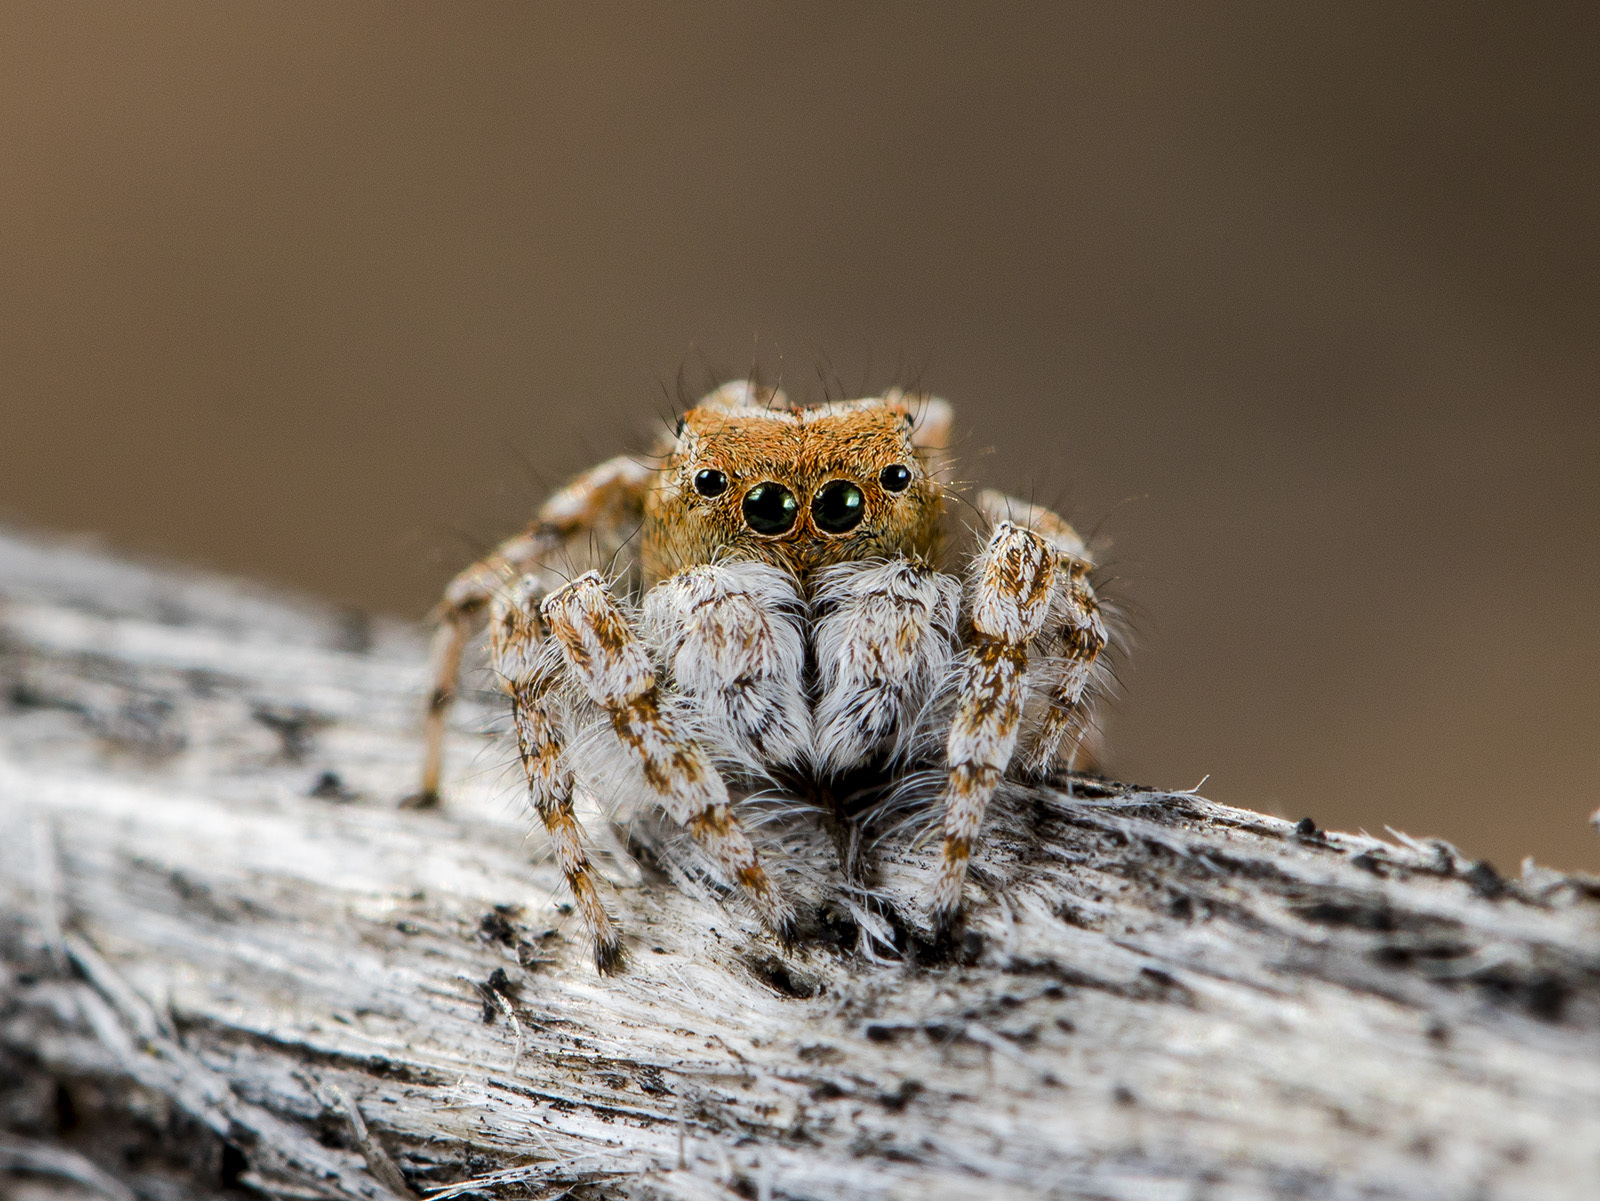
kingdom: Animalia
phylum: Arthropoda
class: Arachnida
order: Araneae
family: Salticidae
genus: Yllenus
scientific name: Yllenus uiguricus
